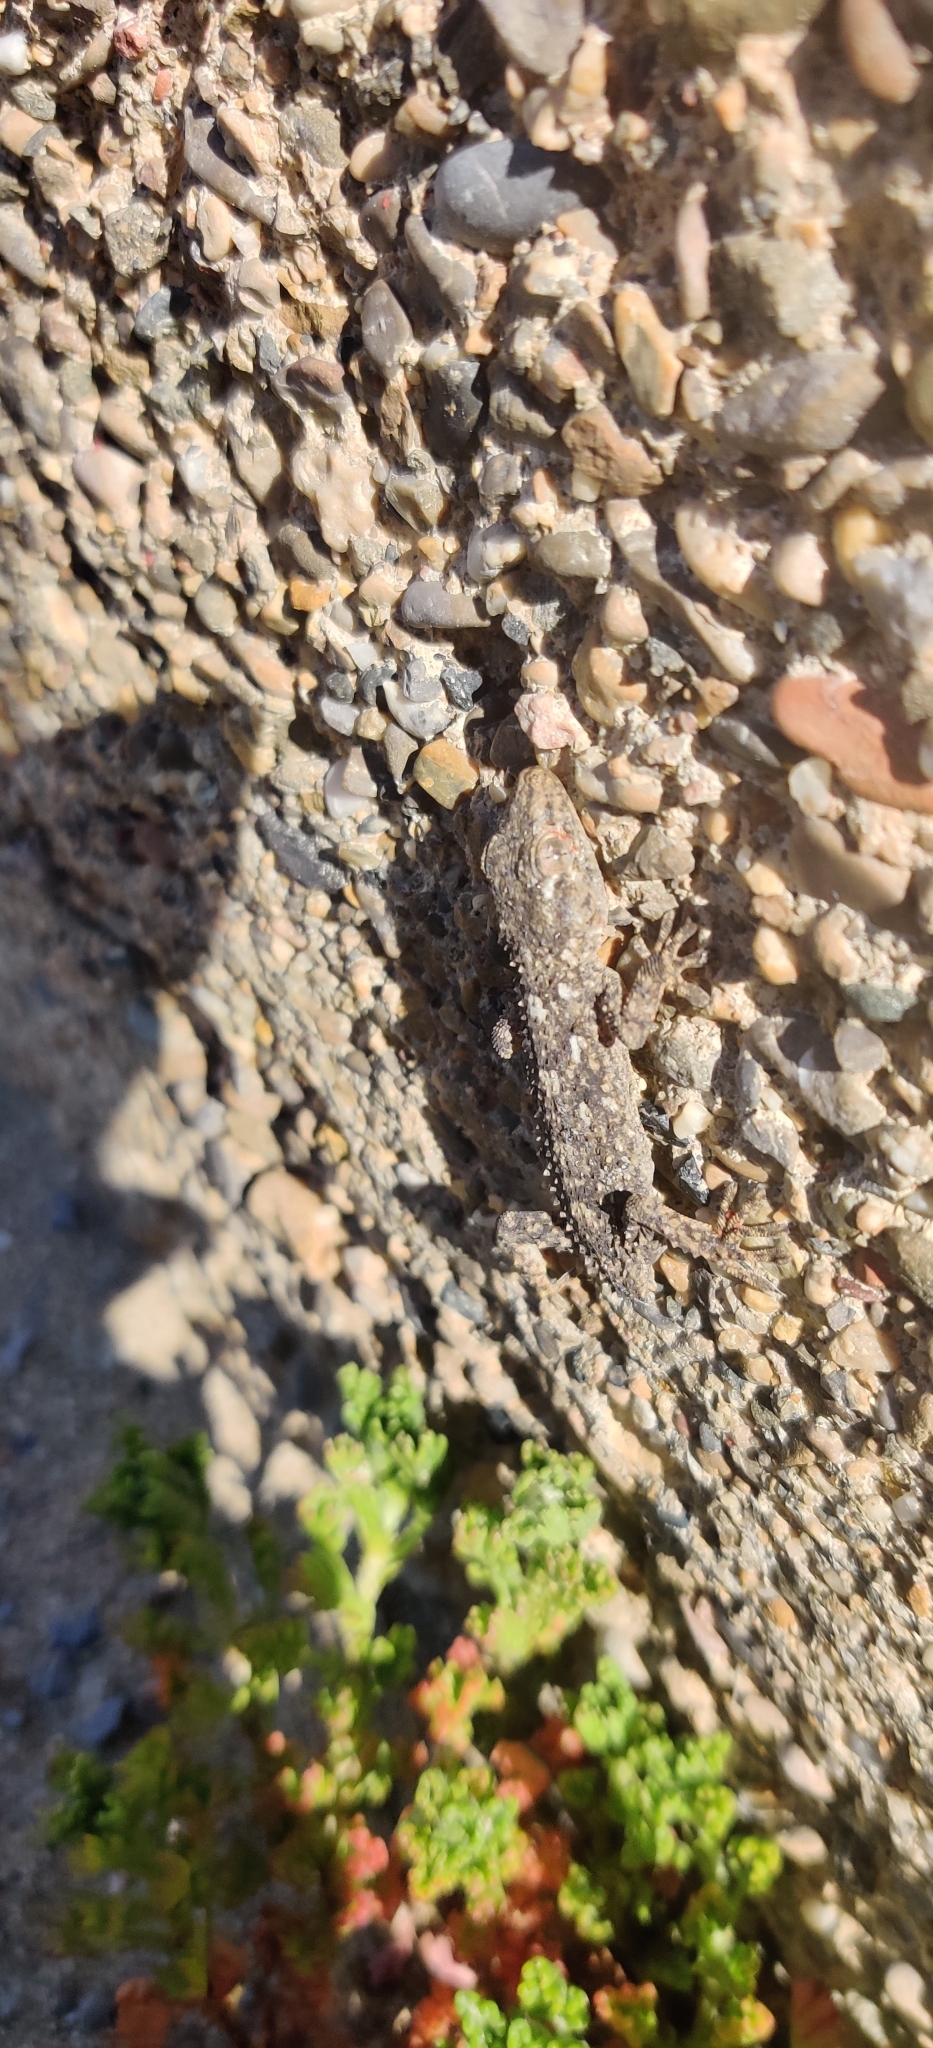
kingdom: Animalia
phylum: Chordata
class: Squamata
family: Phyllodactylidae
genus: Tarentola
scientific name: Tarentola mauritanica
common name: Moorish gecko
